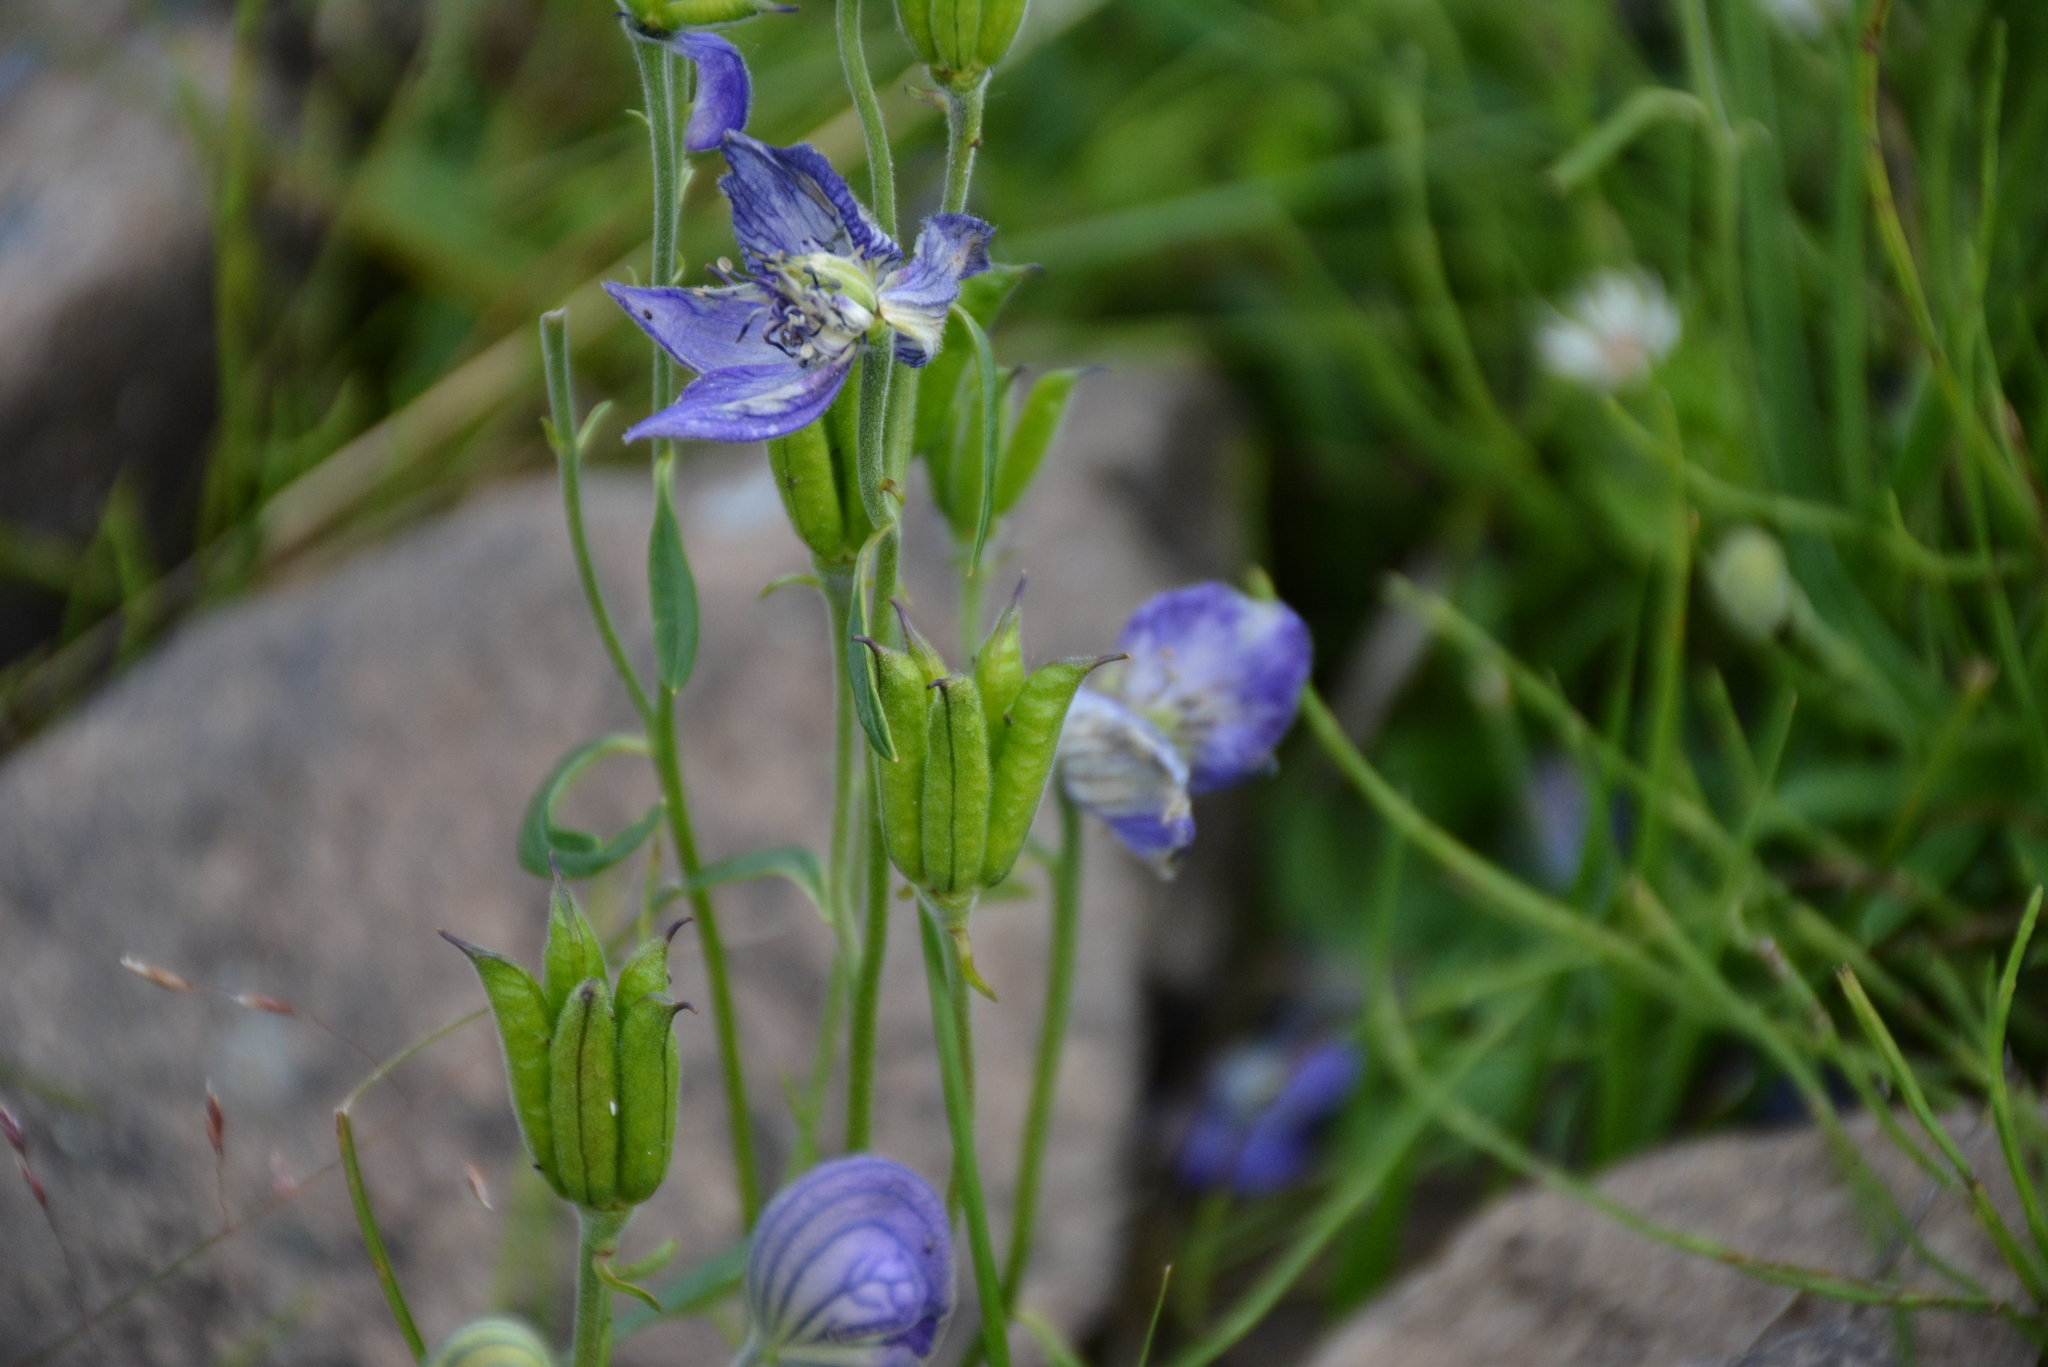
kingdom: Plantae
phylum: Tracheophyta
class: Magnoliopsida
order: Ranunculales
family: Ranunculaceae
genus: Aconitum
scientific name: Aconitum delphiniifolium
